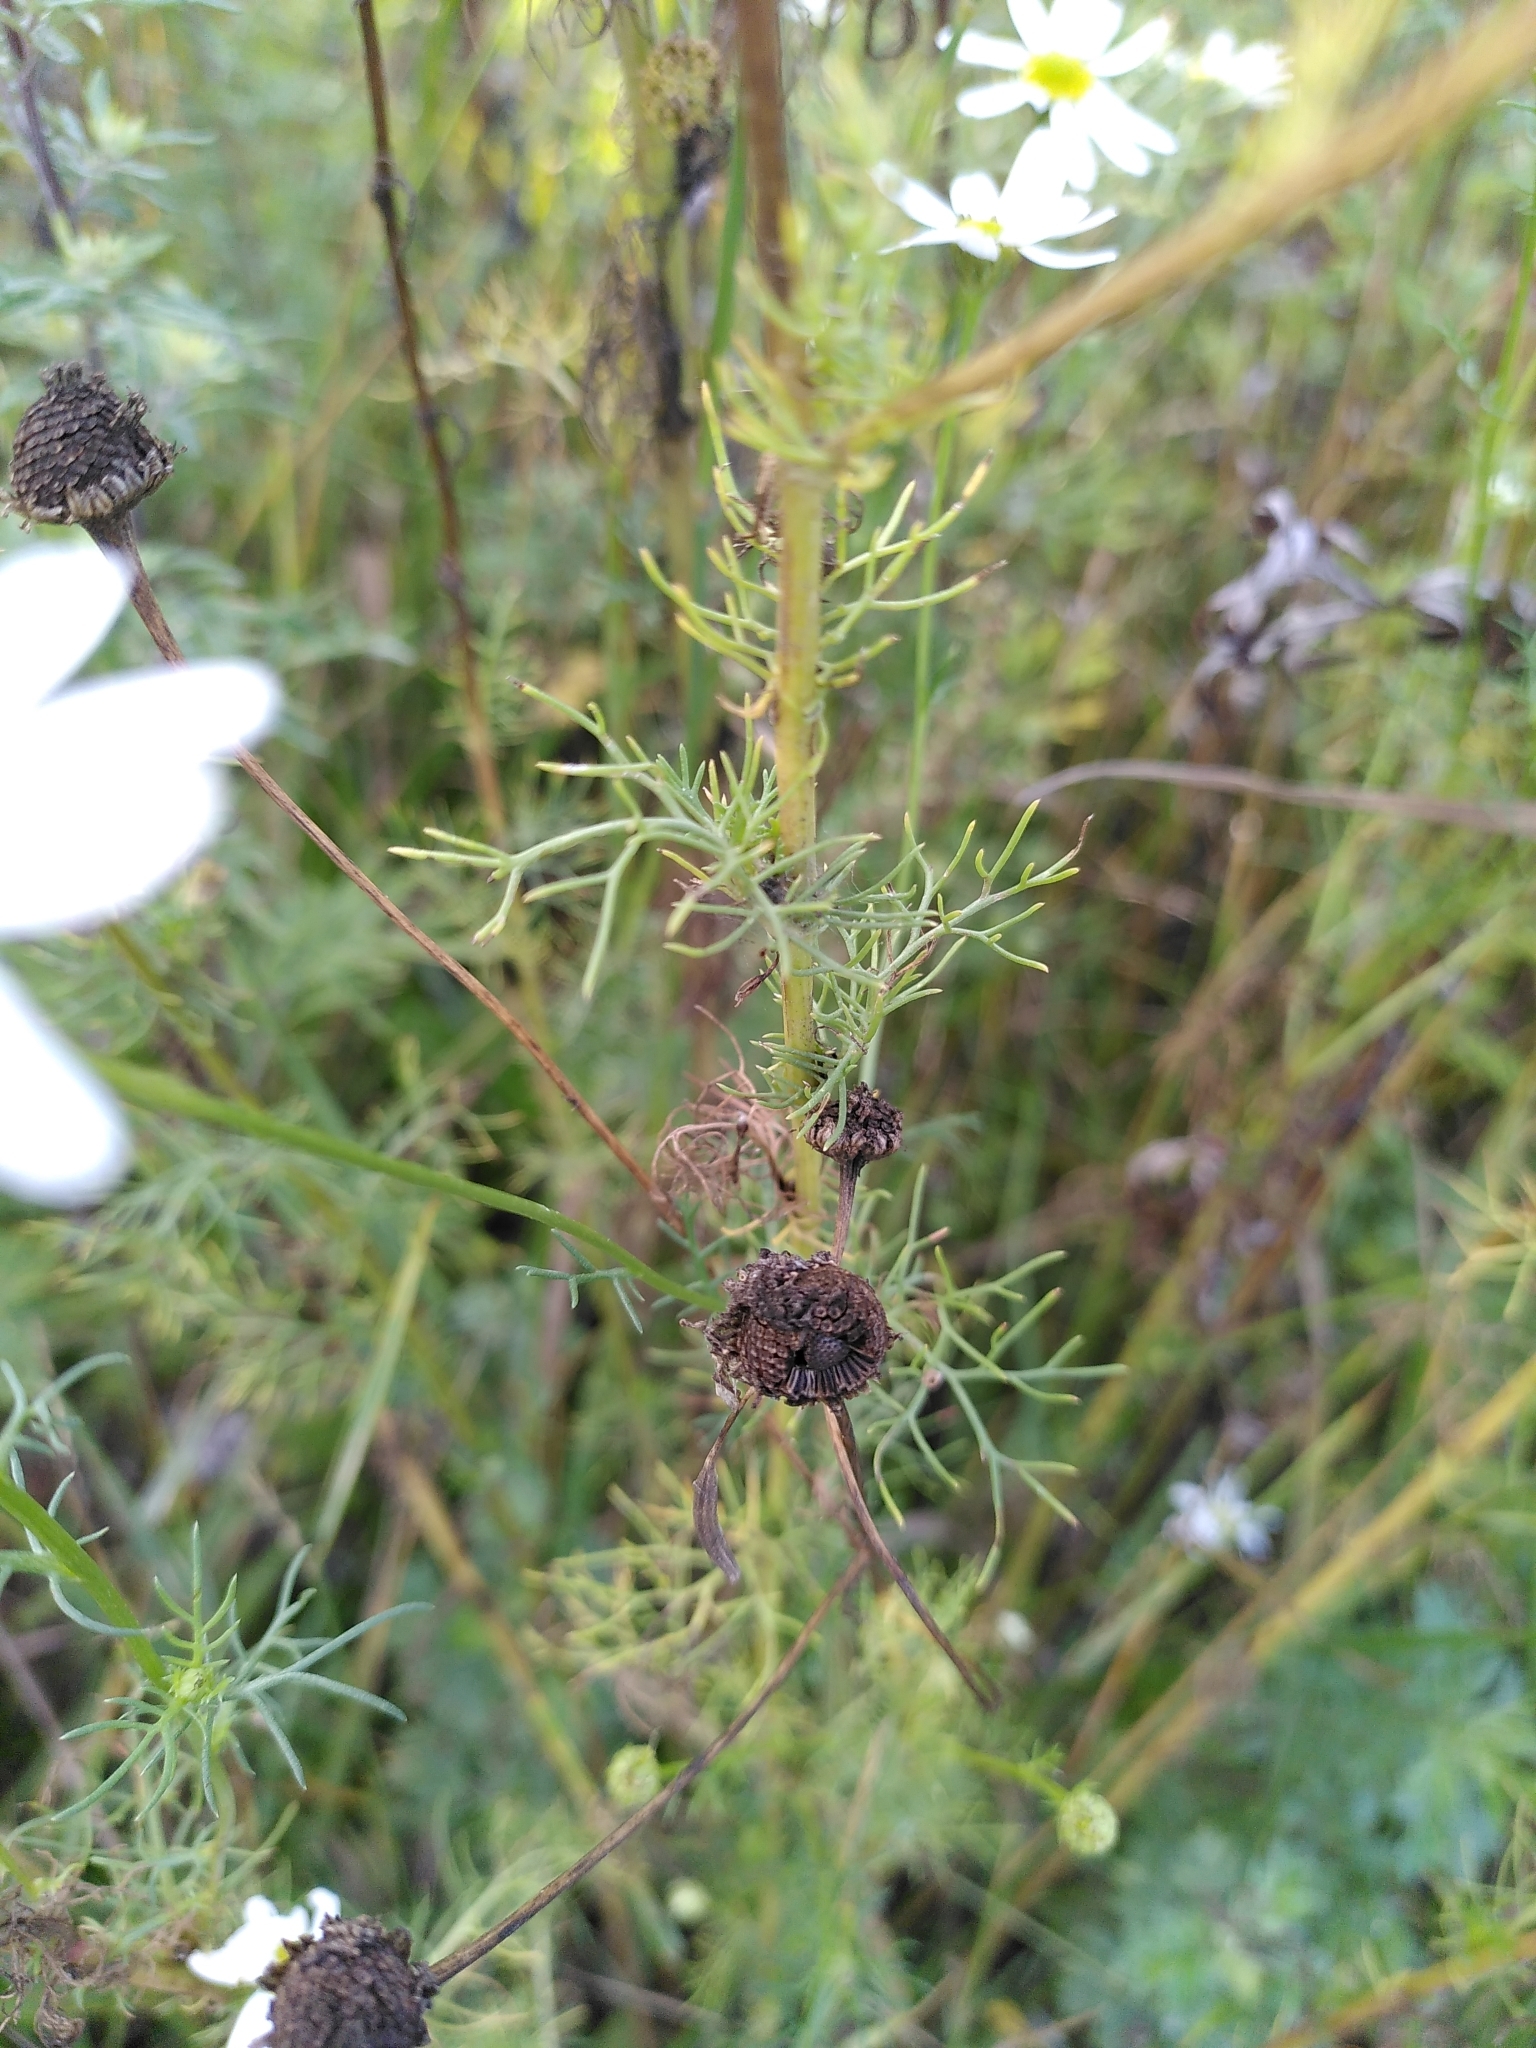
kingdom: Plantae
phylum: Tracheophyta
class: Magnoliopsida
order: Asterales
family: Asteraceae
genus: Tripleurospermum
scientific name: Tripleurospermum inodorum
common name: Scentless mayweed
